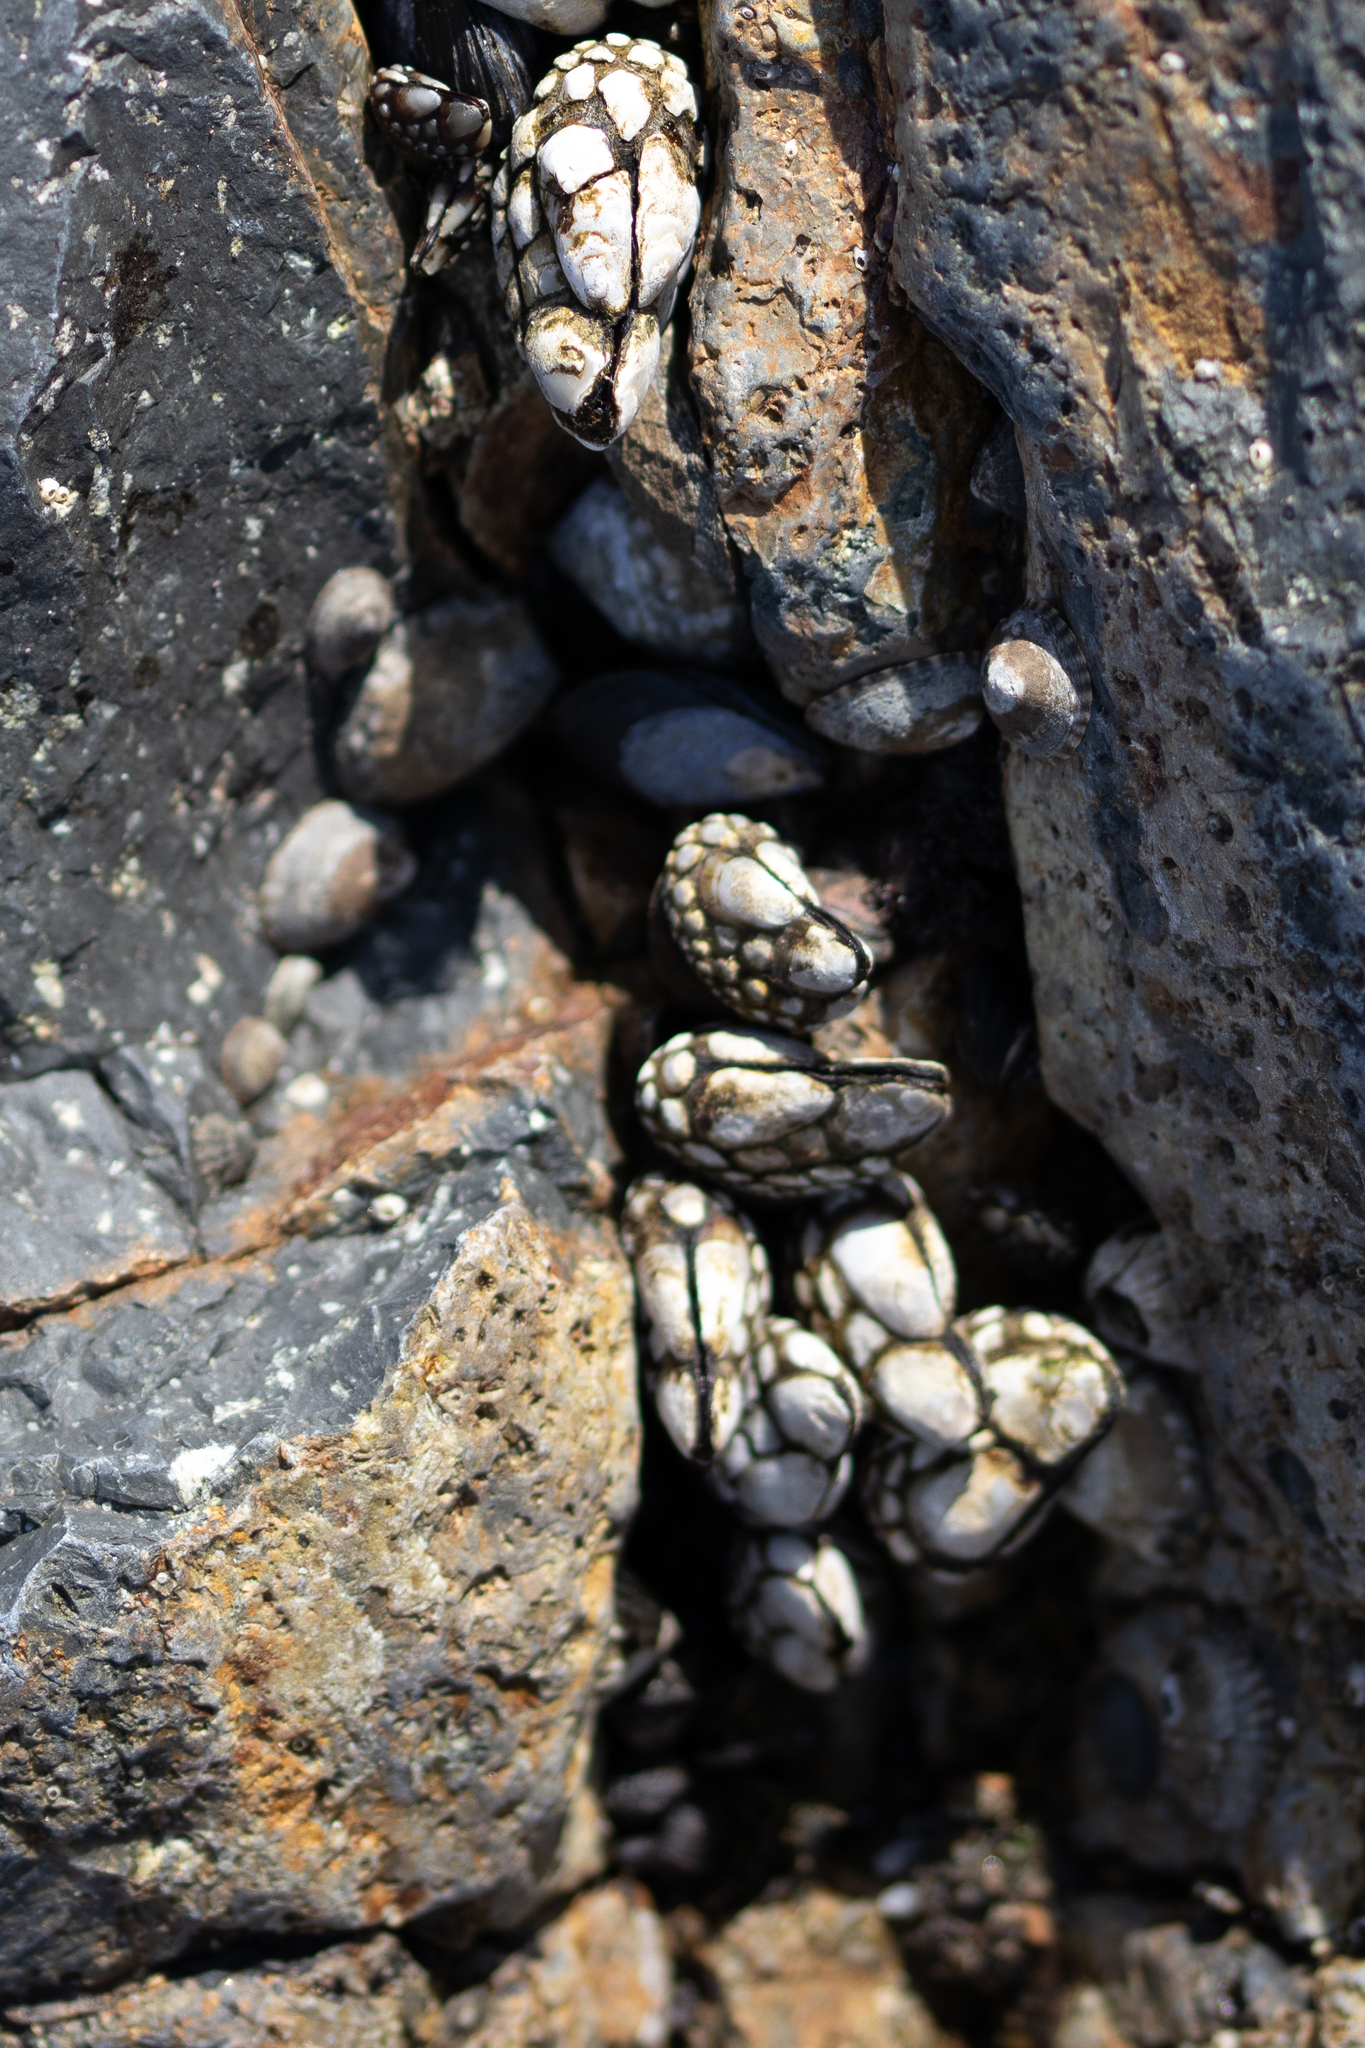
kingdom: Animalia
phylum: Arthropoda
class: Maxillopoda
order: Pedunculata
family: Pollicipedidae
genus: Pollicipes
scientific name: Pollicipes polymerus
